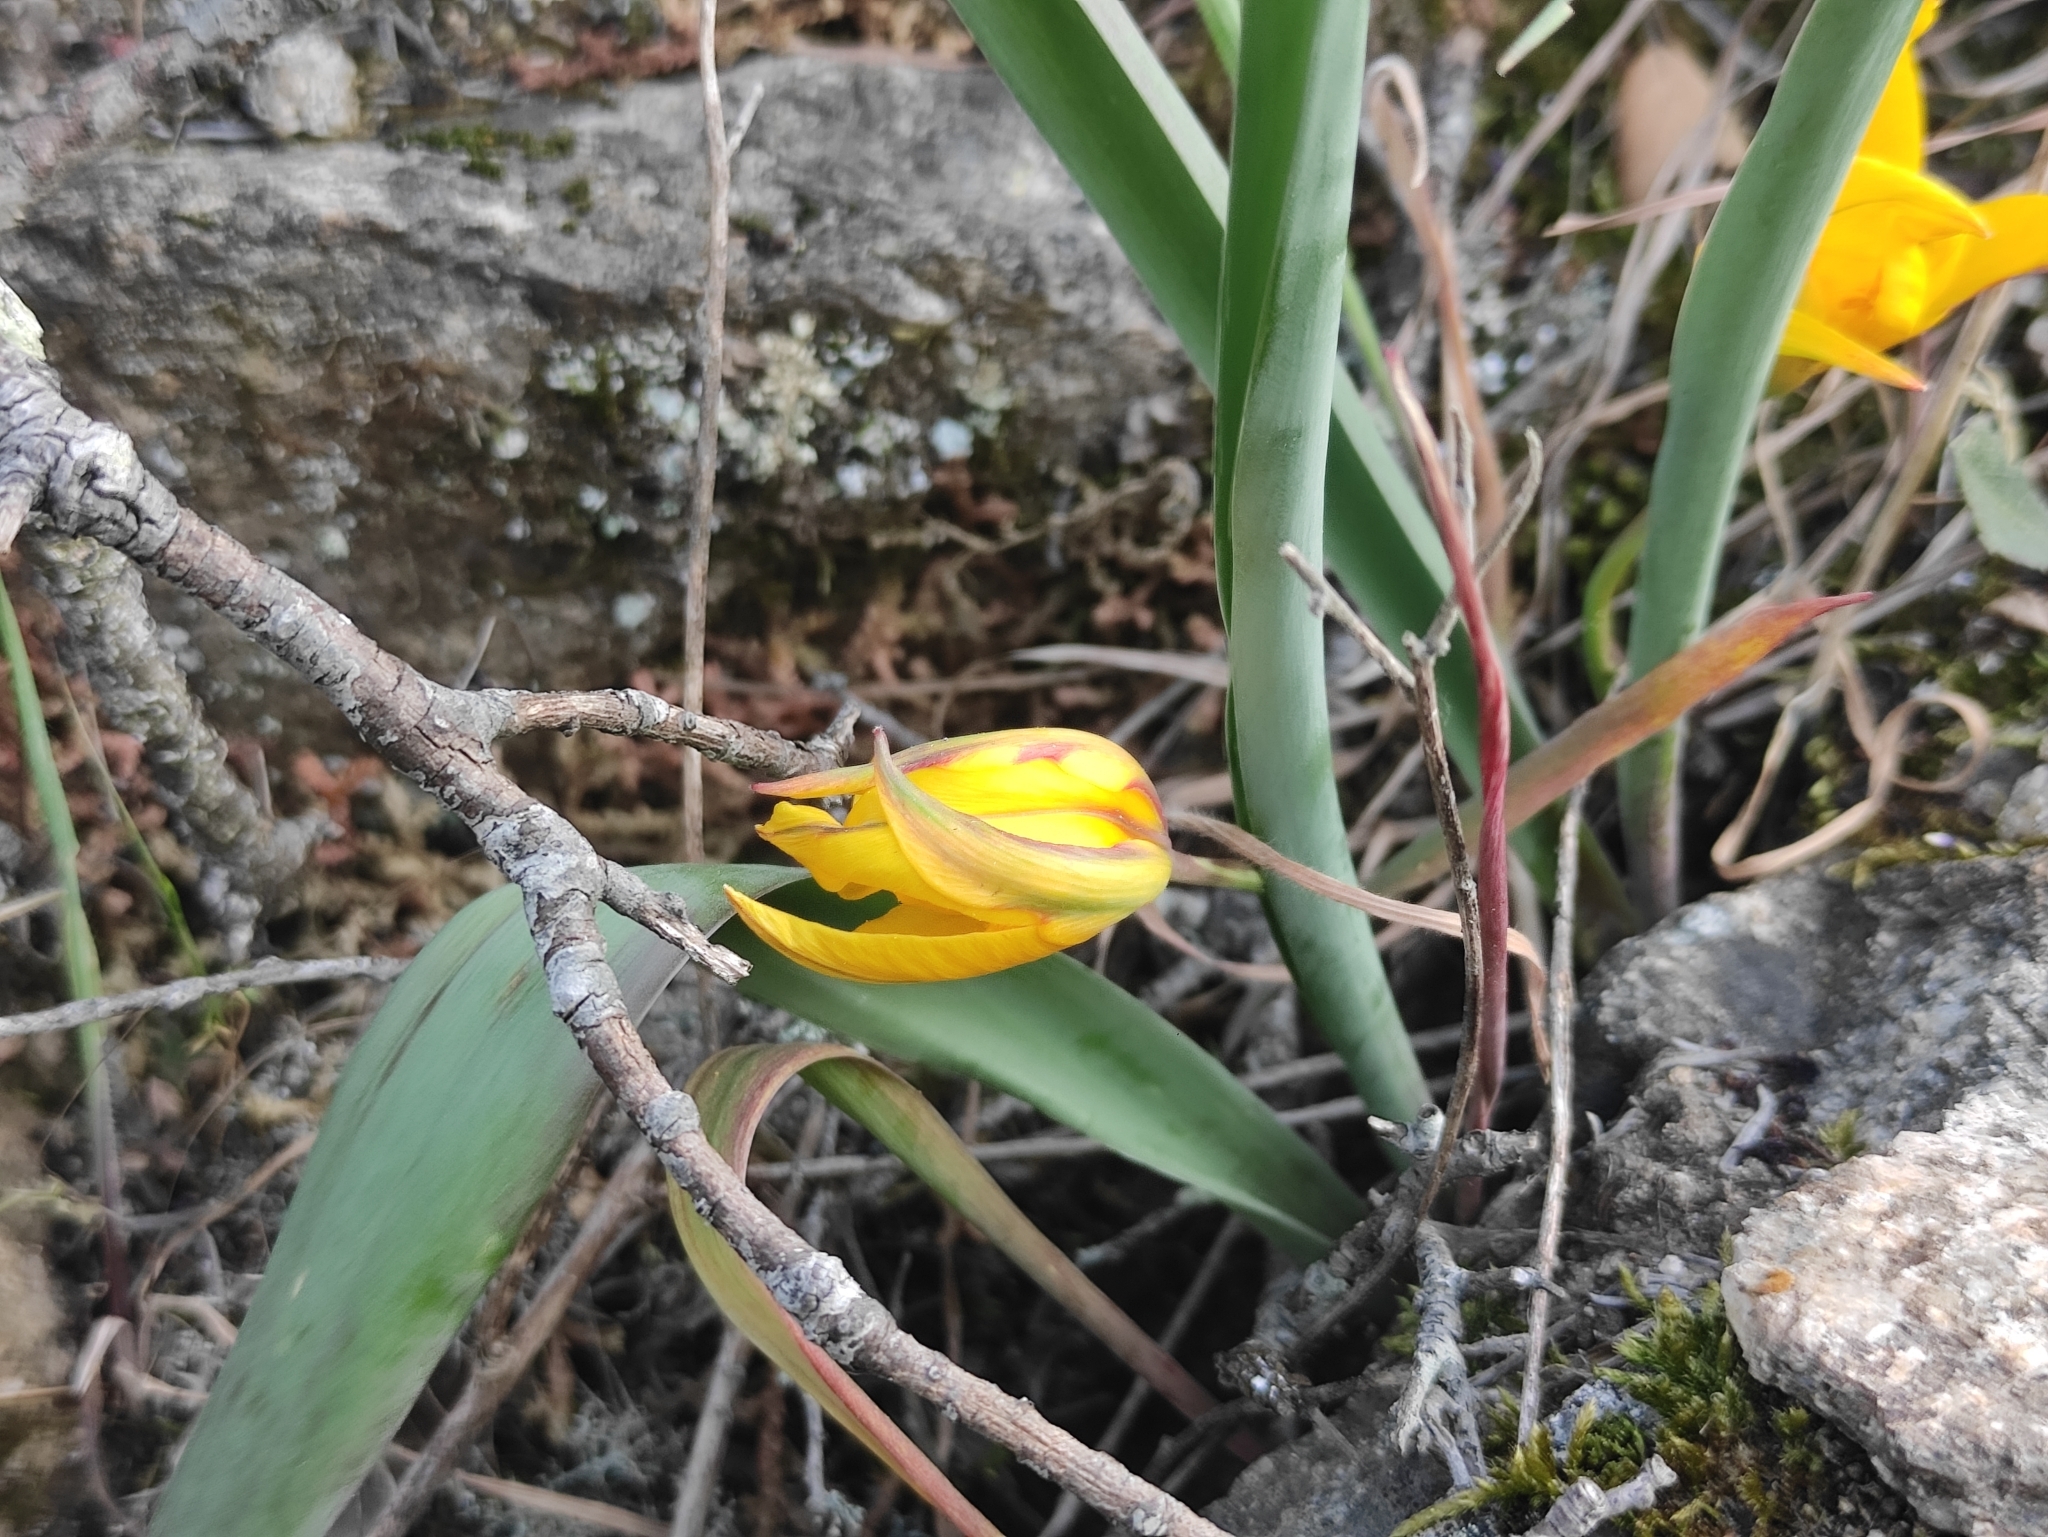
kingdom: Plantae
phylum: Tracheophyta
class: Liliopsida
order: Liliales
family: Liliaceae
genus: Tulipa
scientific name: Tulipa sylvestris
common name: Wild tulip
